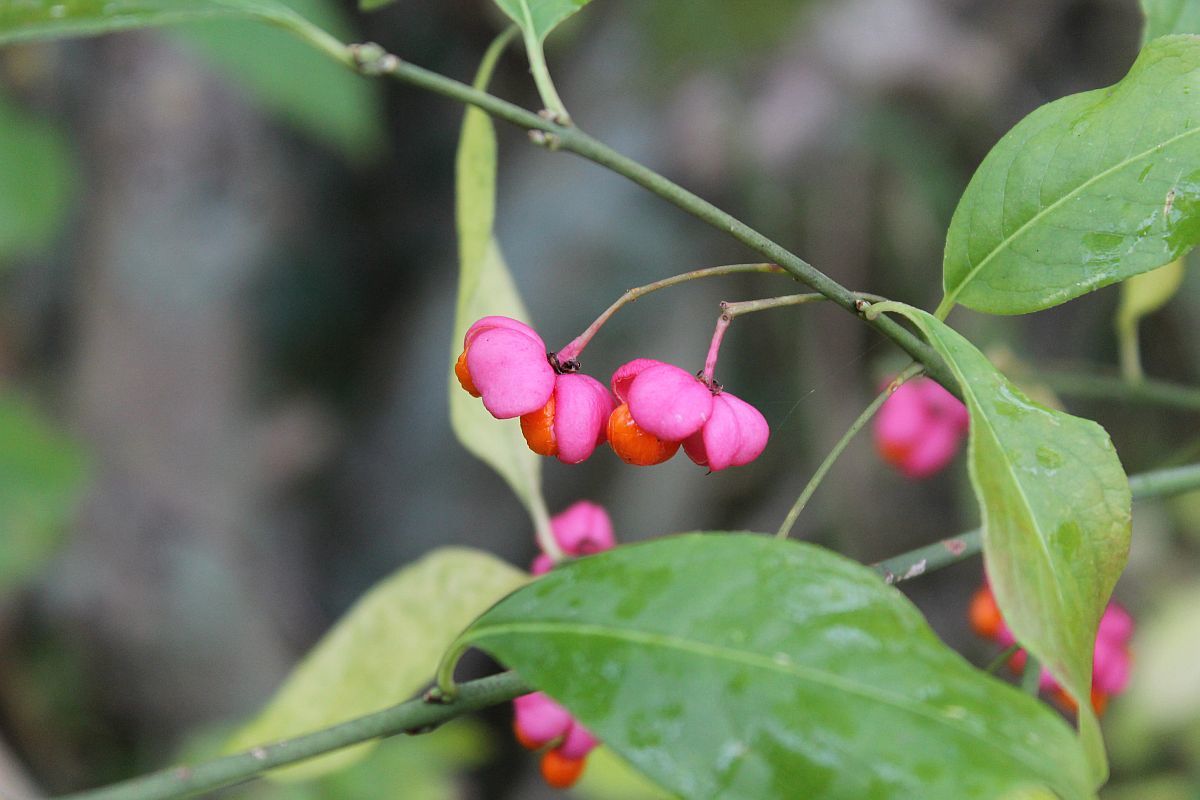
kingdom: Plantae
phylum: Tracheophyta
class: Magnoliopsida
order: Celastrales
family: Celastraceae
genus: Euonymus
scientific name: Euonymus europaeus
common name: Spindle
